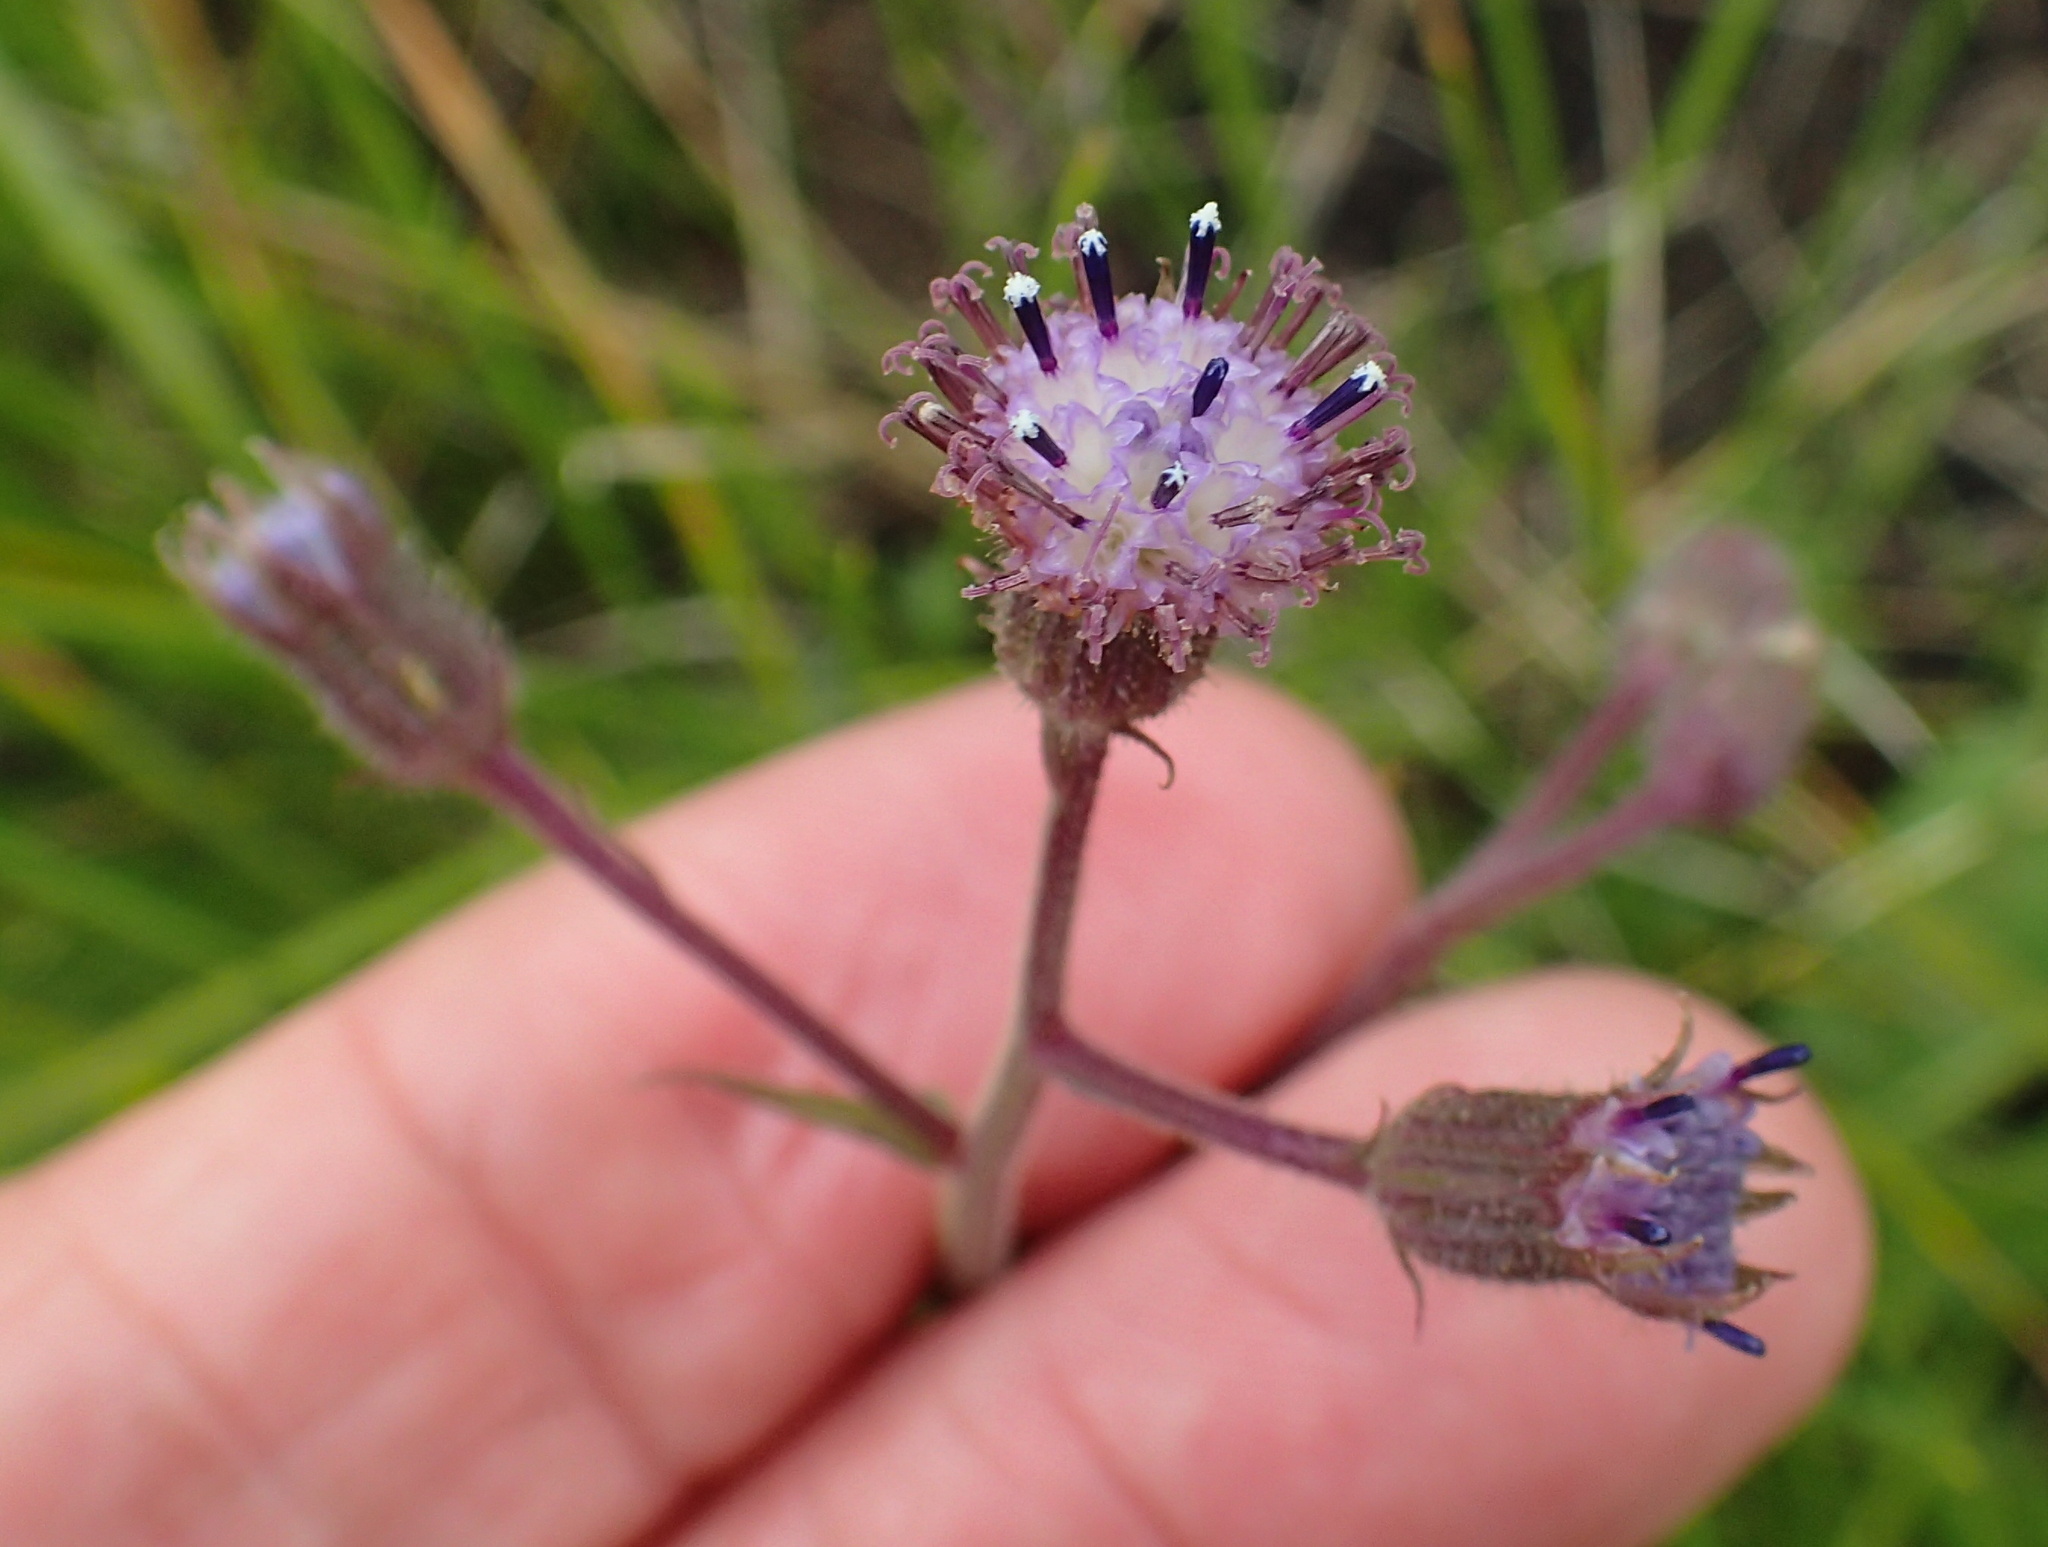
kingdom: Plantae
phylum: Tracheophyta
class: Magnoliopsida
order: Asterales
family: Asteraceae
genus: Senecio
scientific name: Senecio erubescens
